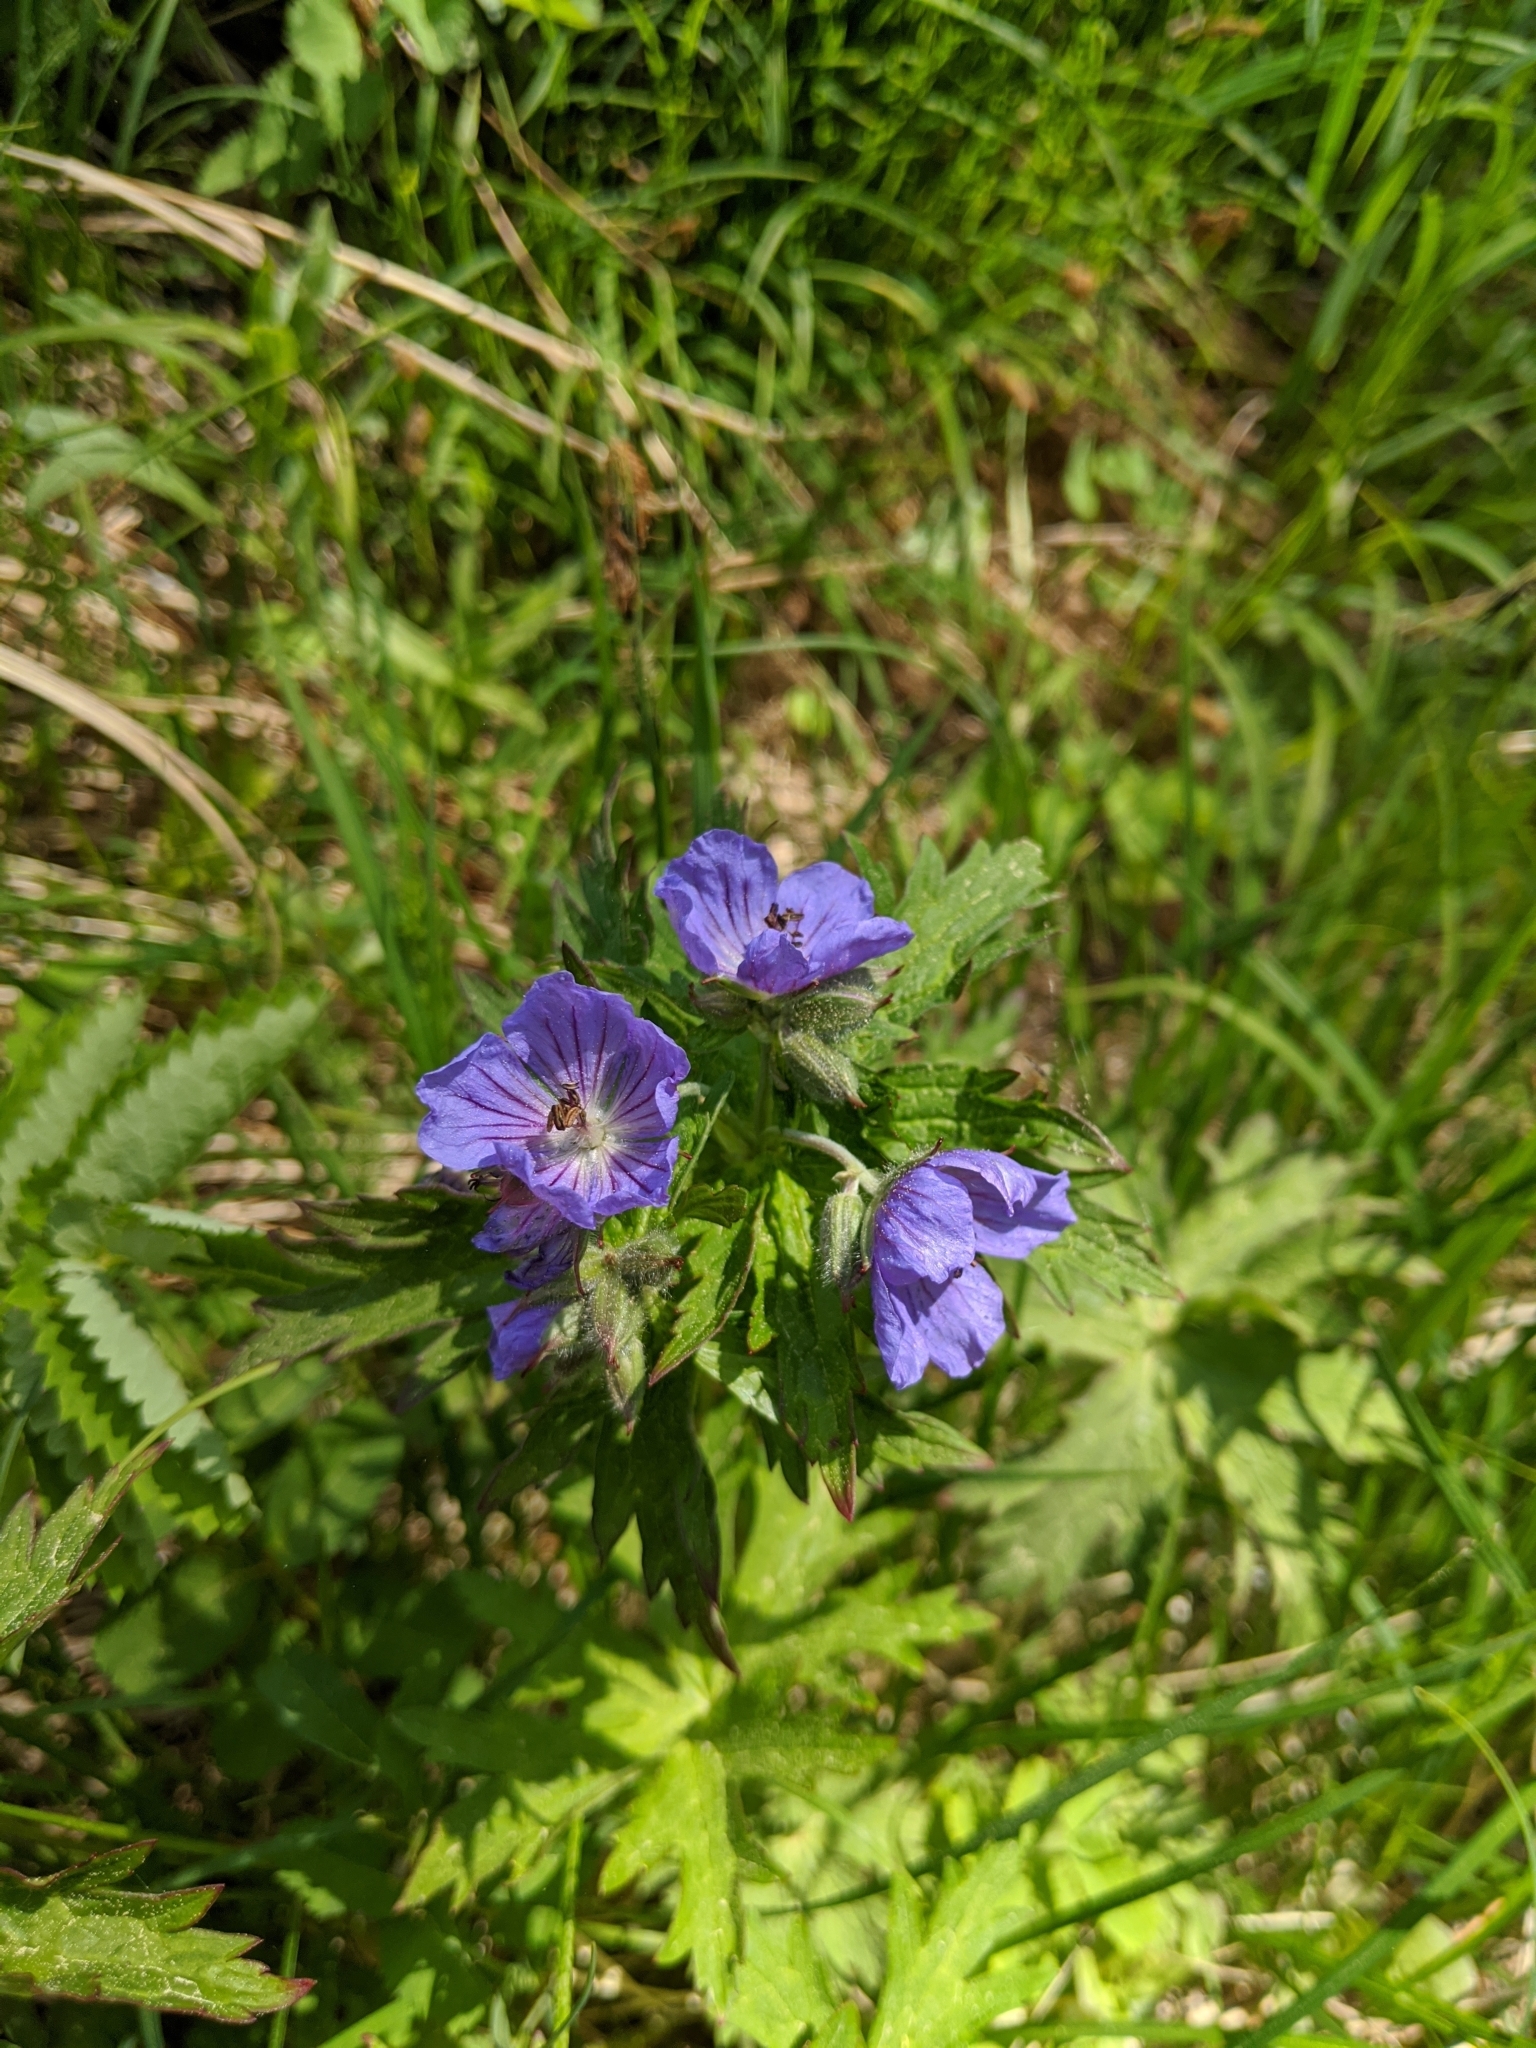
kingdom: Plantae
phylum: Tracheophyta
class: Magnoliopsida
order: Geraniales
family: Geraniaceae
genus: Geranium
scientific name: Geranium erianthum
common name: Northern crane's-bill
